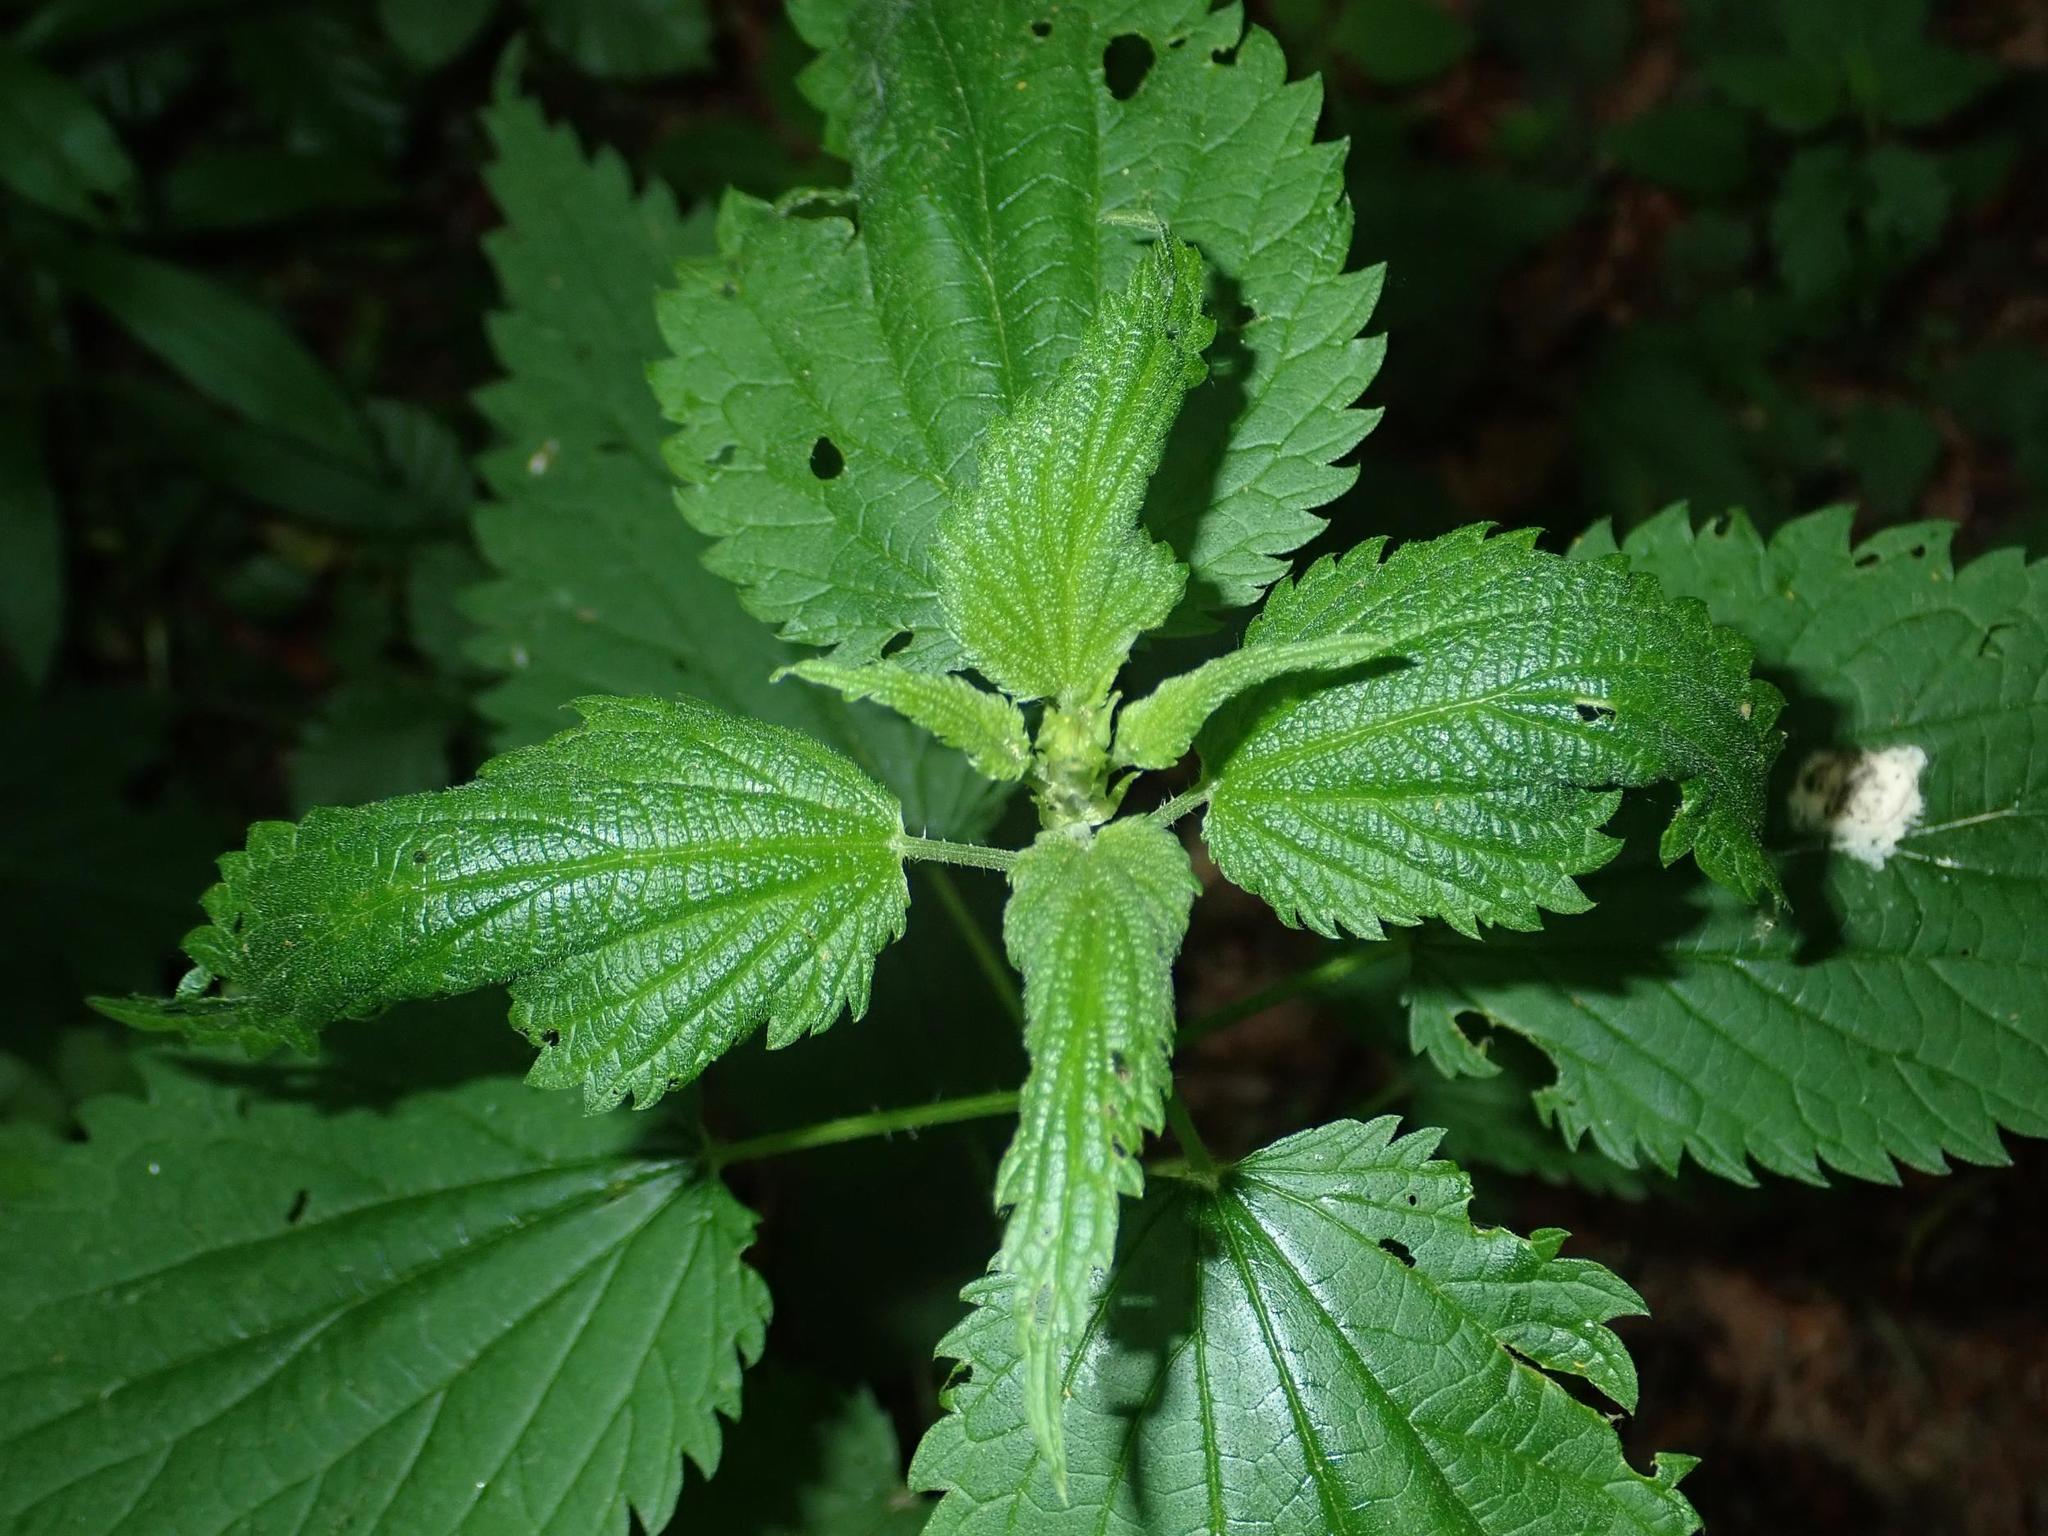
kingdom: Plantae
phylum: Tracheophyta
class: Magnoliopsida
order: Rosales
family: Urticaceae
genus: Urtica
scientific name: Urtica dioica
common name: Common nettle
